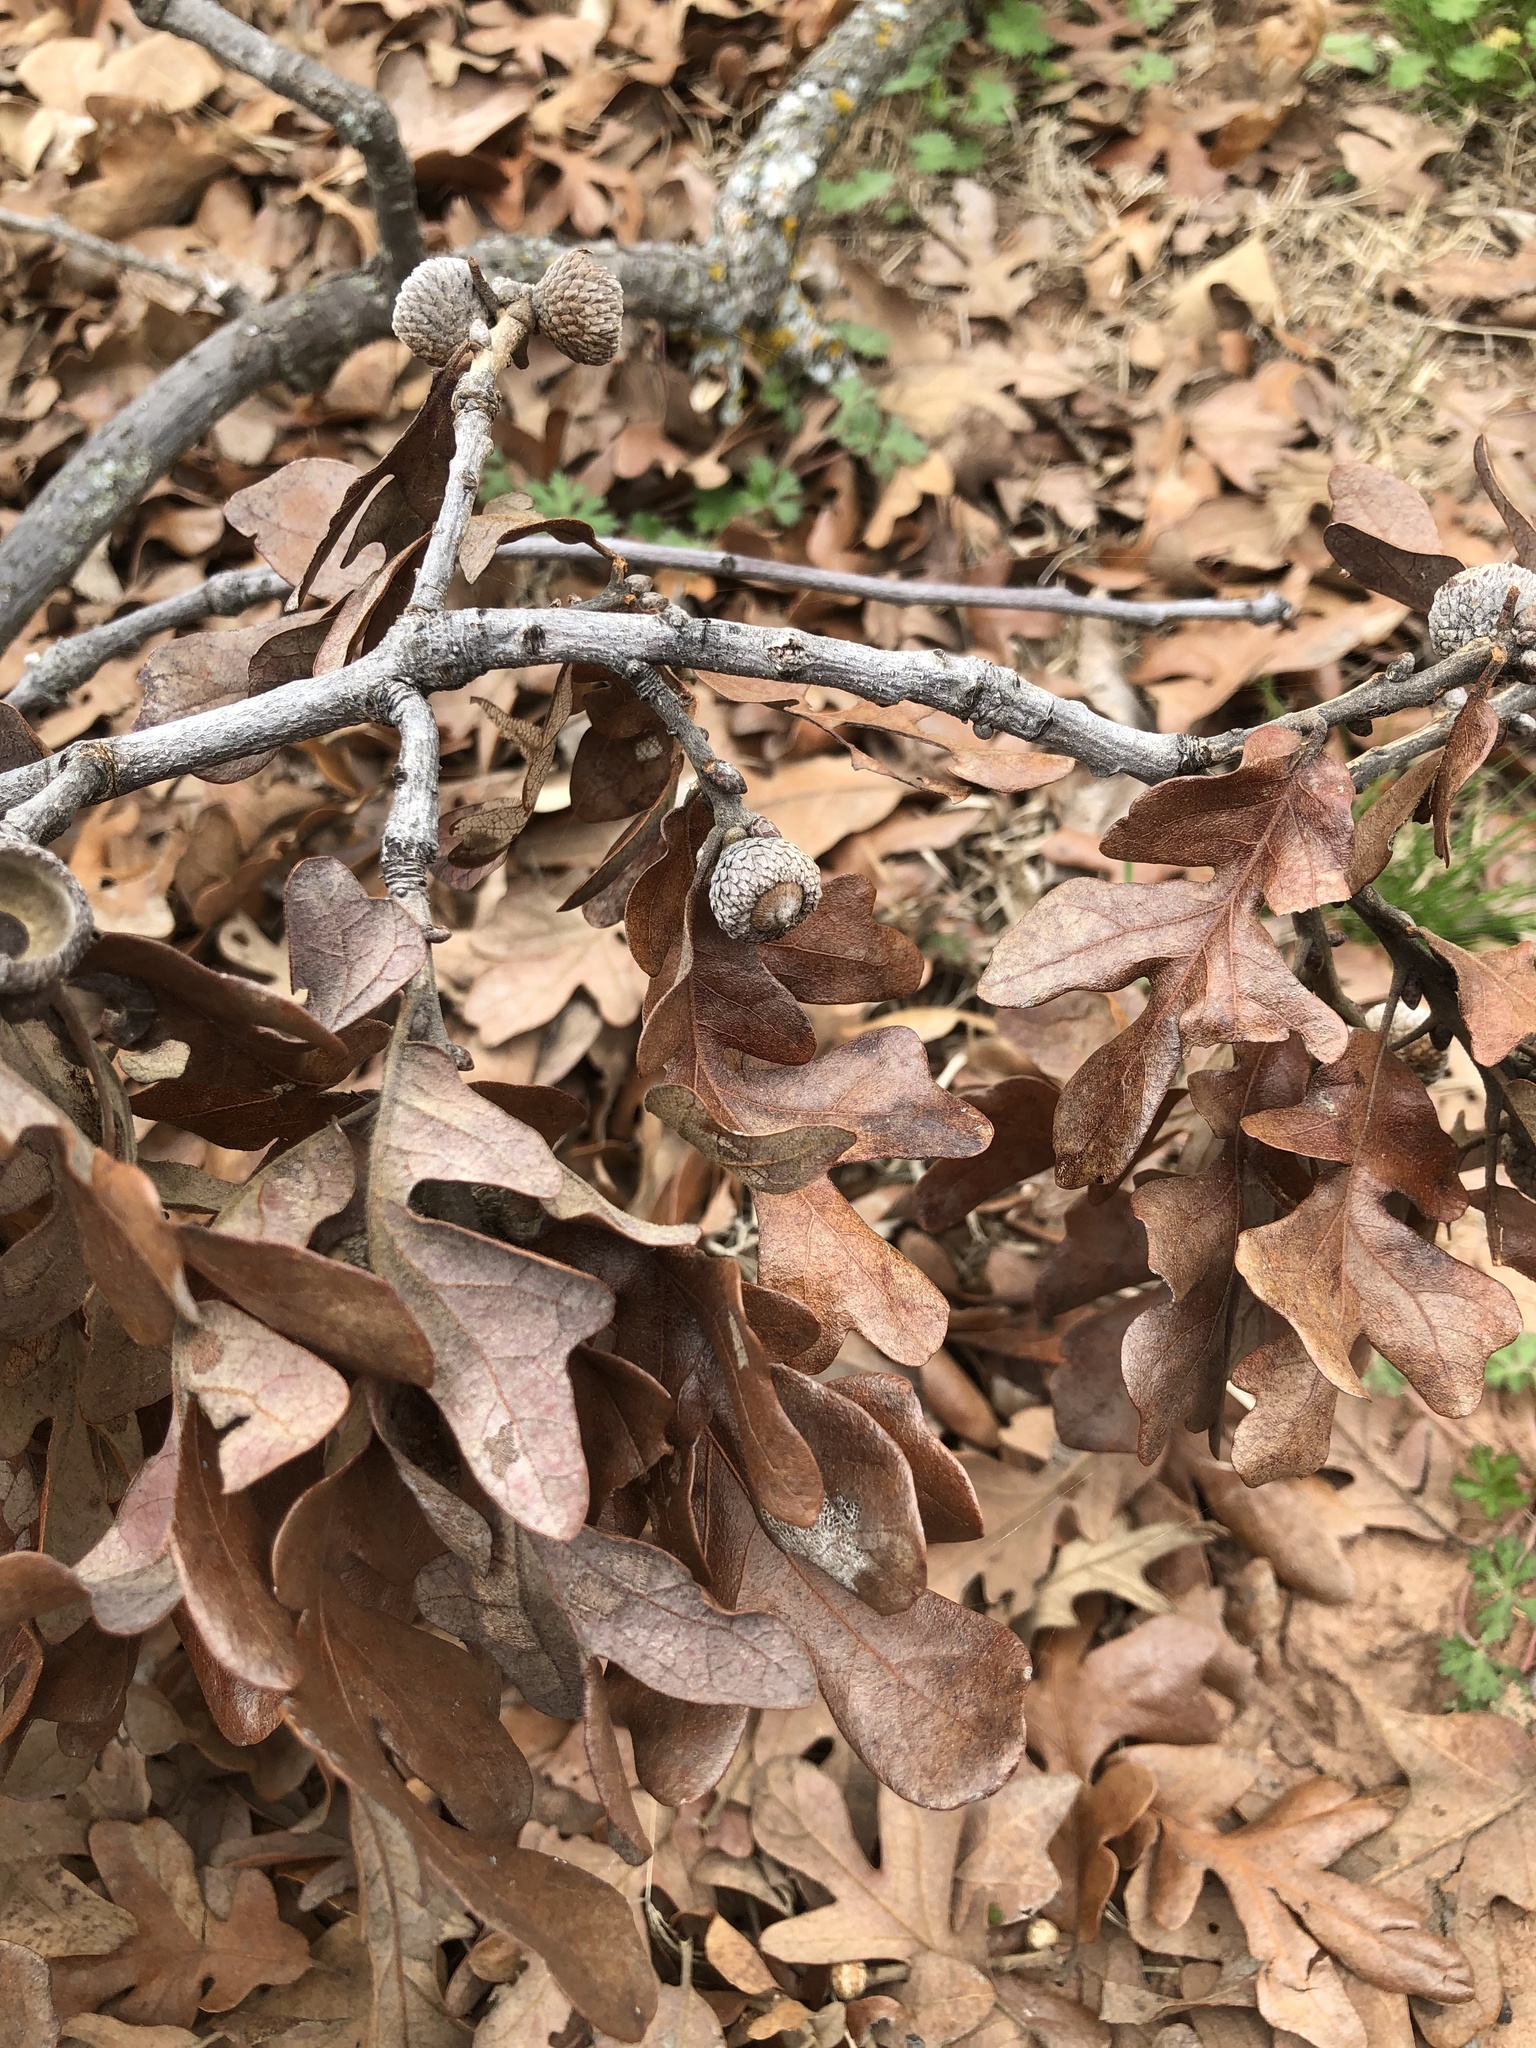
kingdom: Plantae
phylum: Tracheophyta
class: Magnoliopsida
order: Fagales
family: Fagaceae
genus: Quercus
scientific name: Quercus stellata
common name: Post oak
